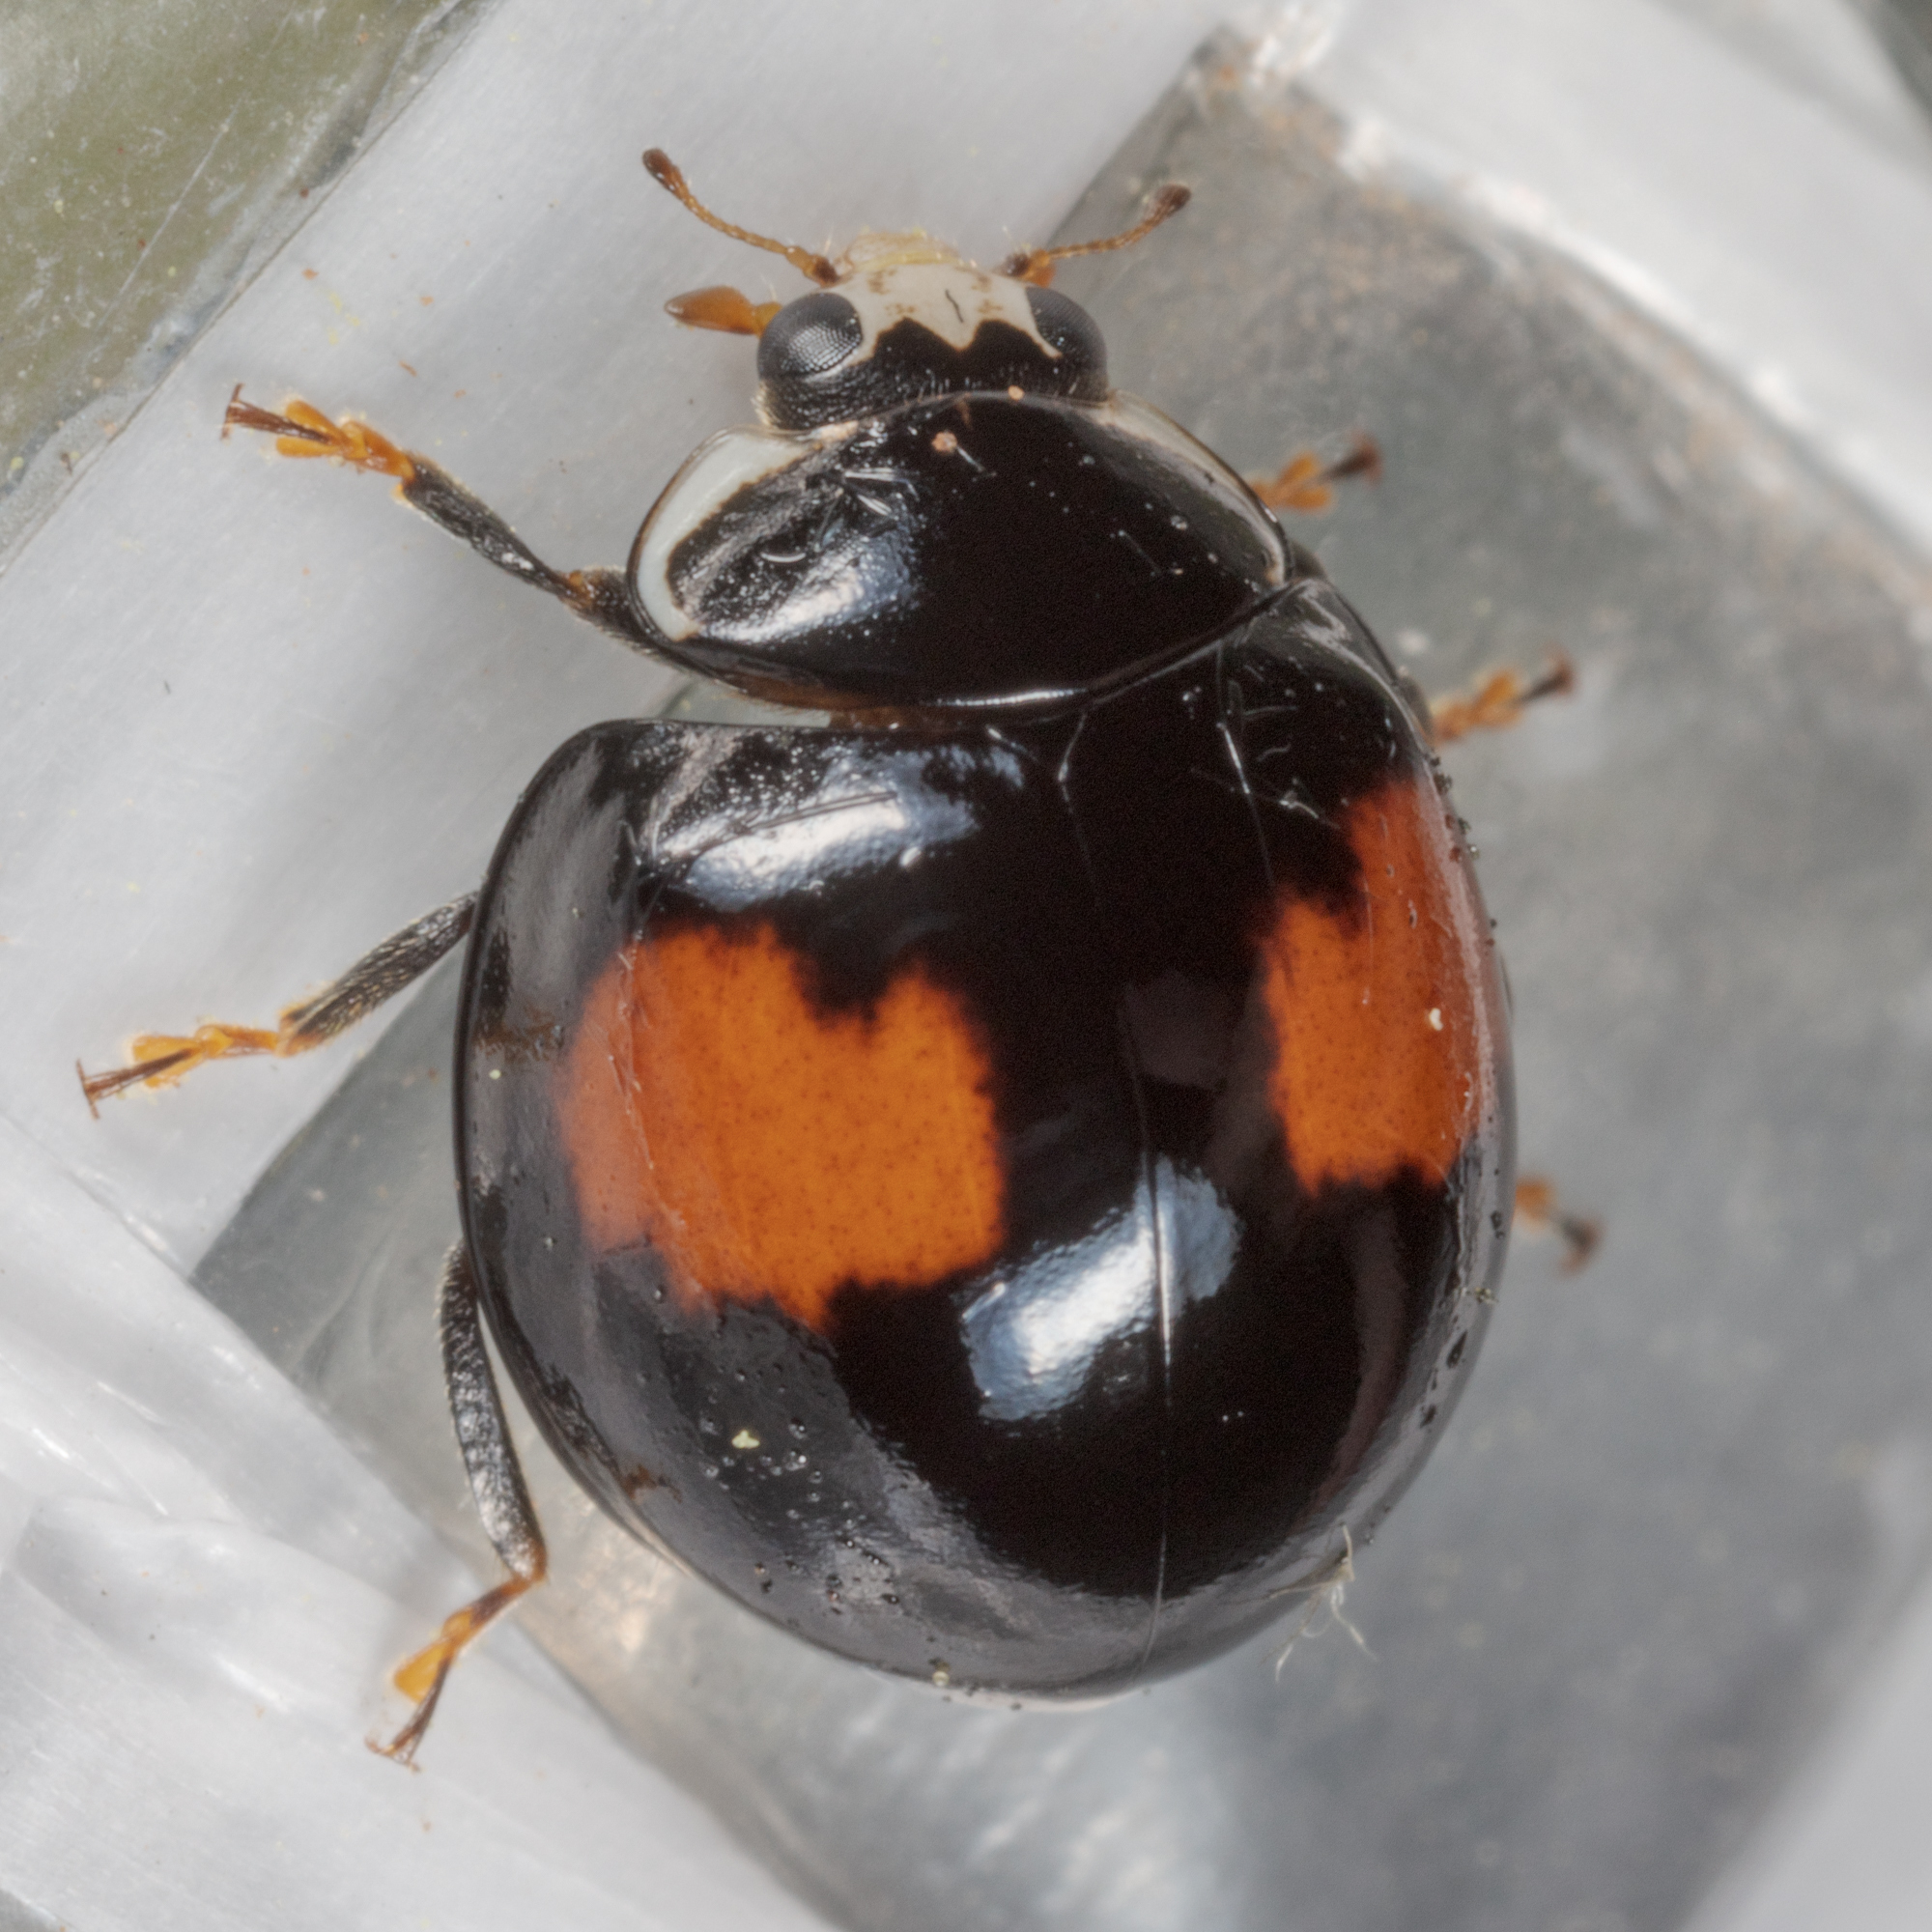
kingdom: Animalia
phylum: Arthropoda
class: Insecta
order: Coleoptera
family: Coccinellidae
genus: Olla
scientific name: Olla v-nigrum
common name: Ashy gray lady beetle
